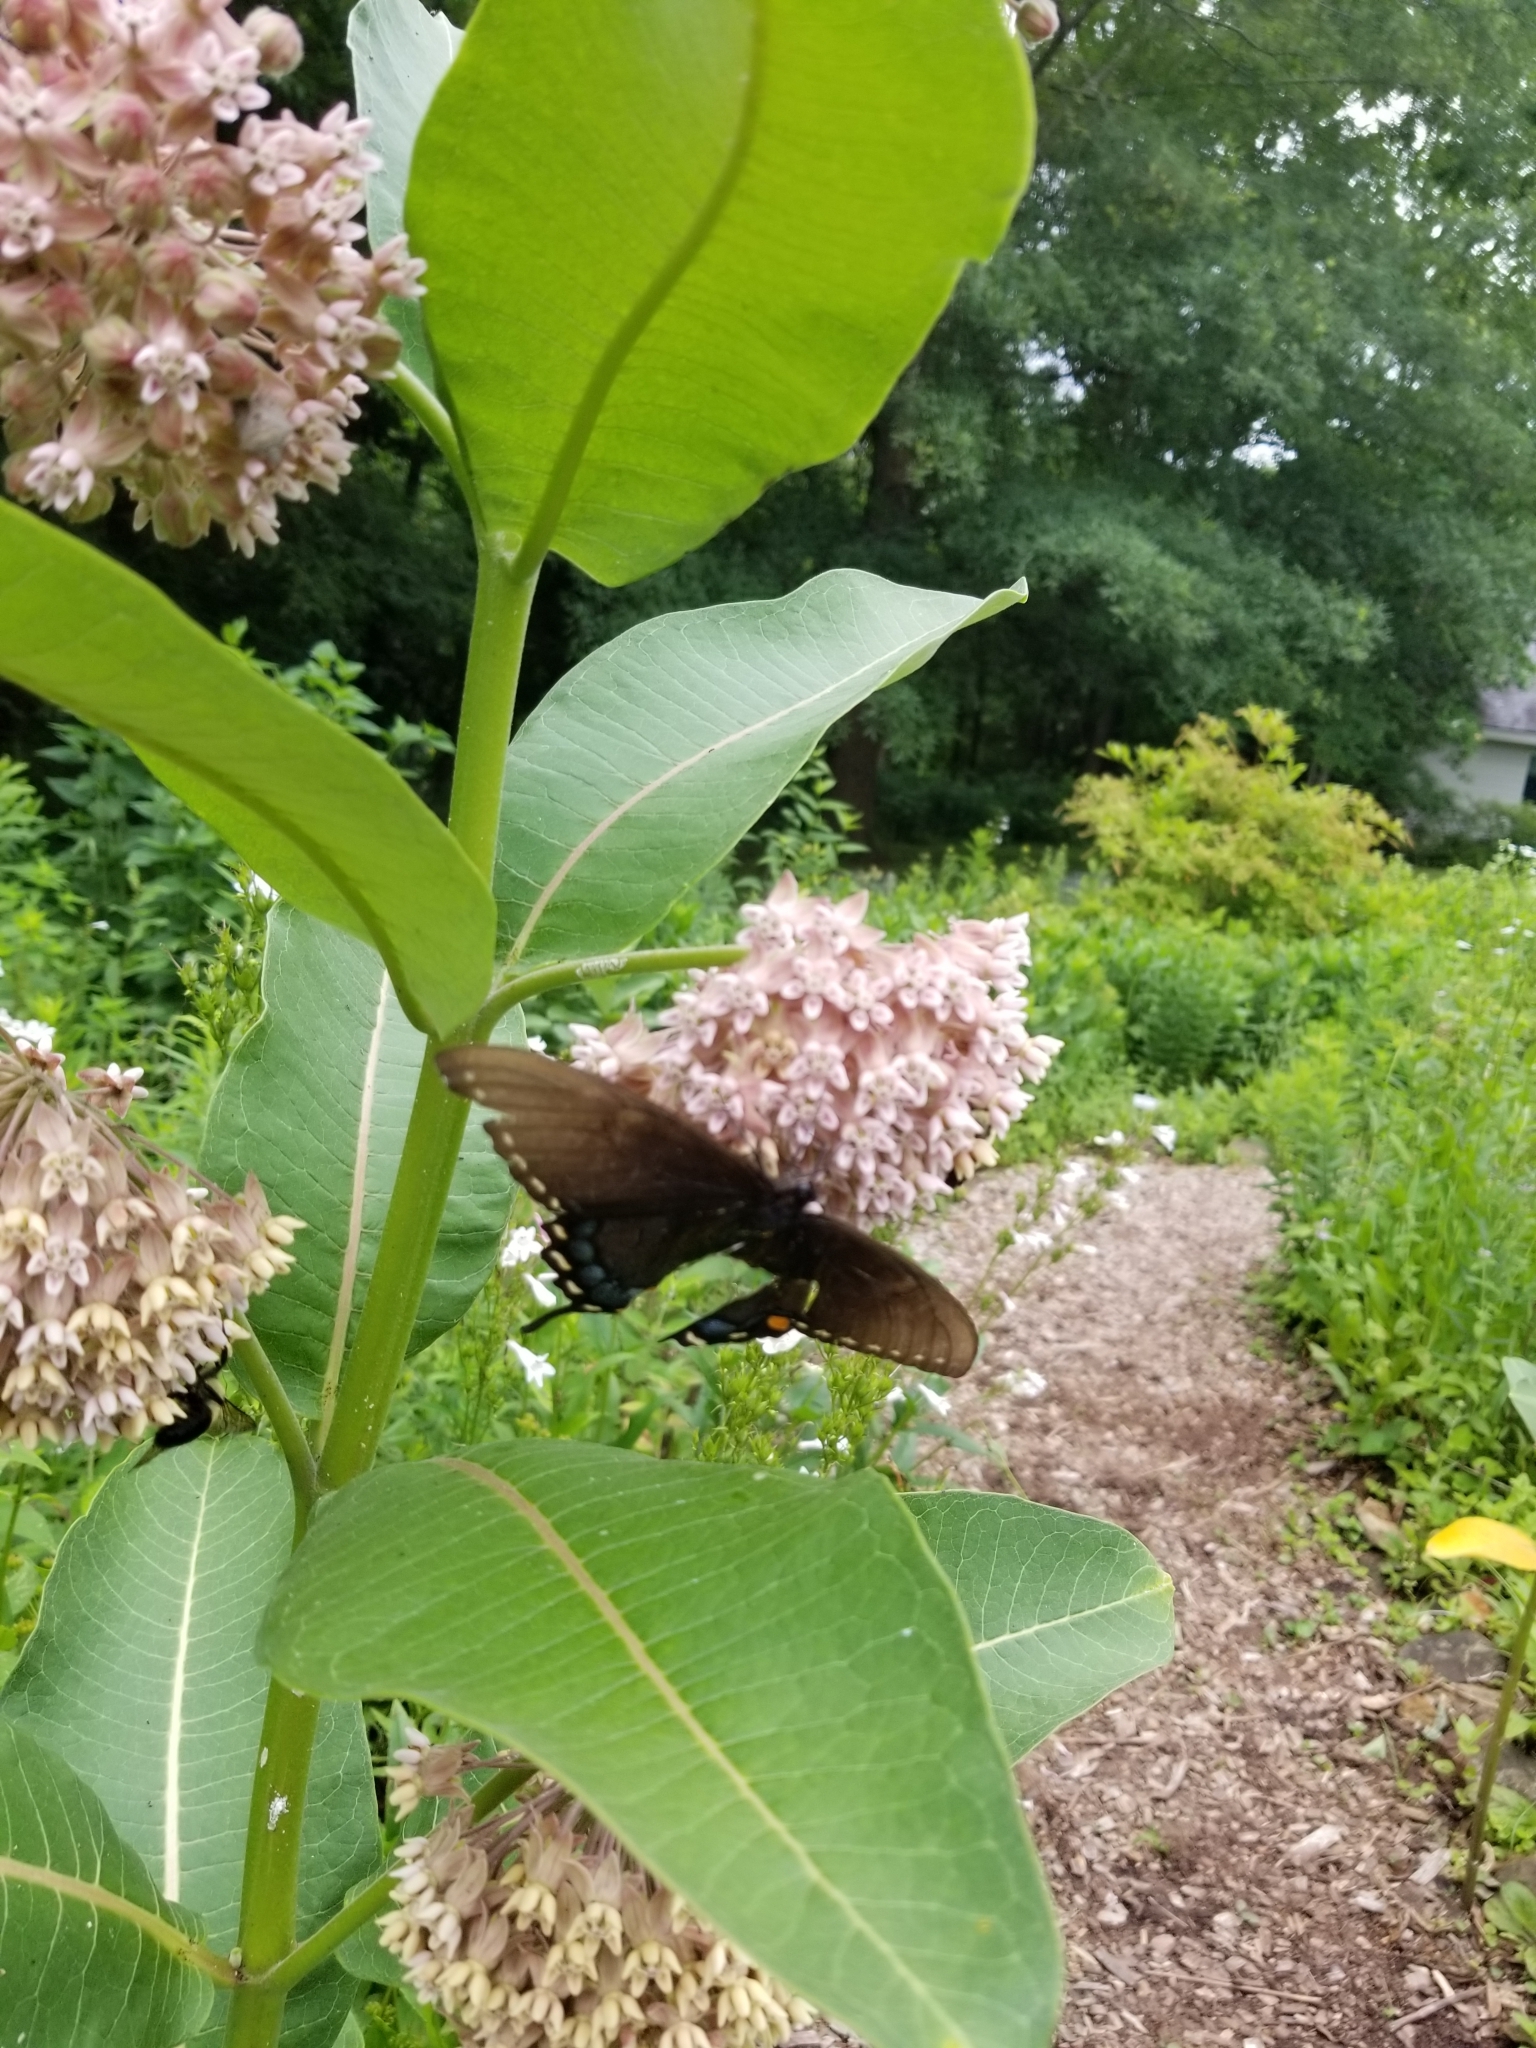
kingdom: Animalia
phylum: Arthropoda
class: Insecta
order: Lepidoptera
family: Papilionidae
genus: Papilio
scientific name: Papilio glaucus
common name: Tiger swallowtail
